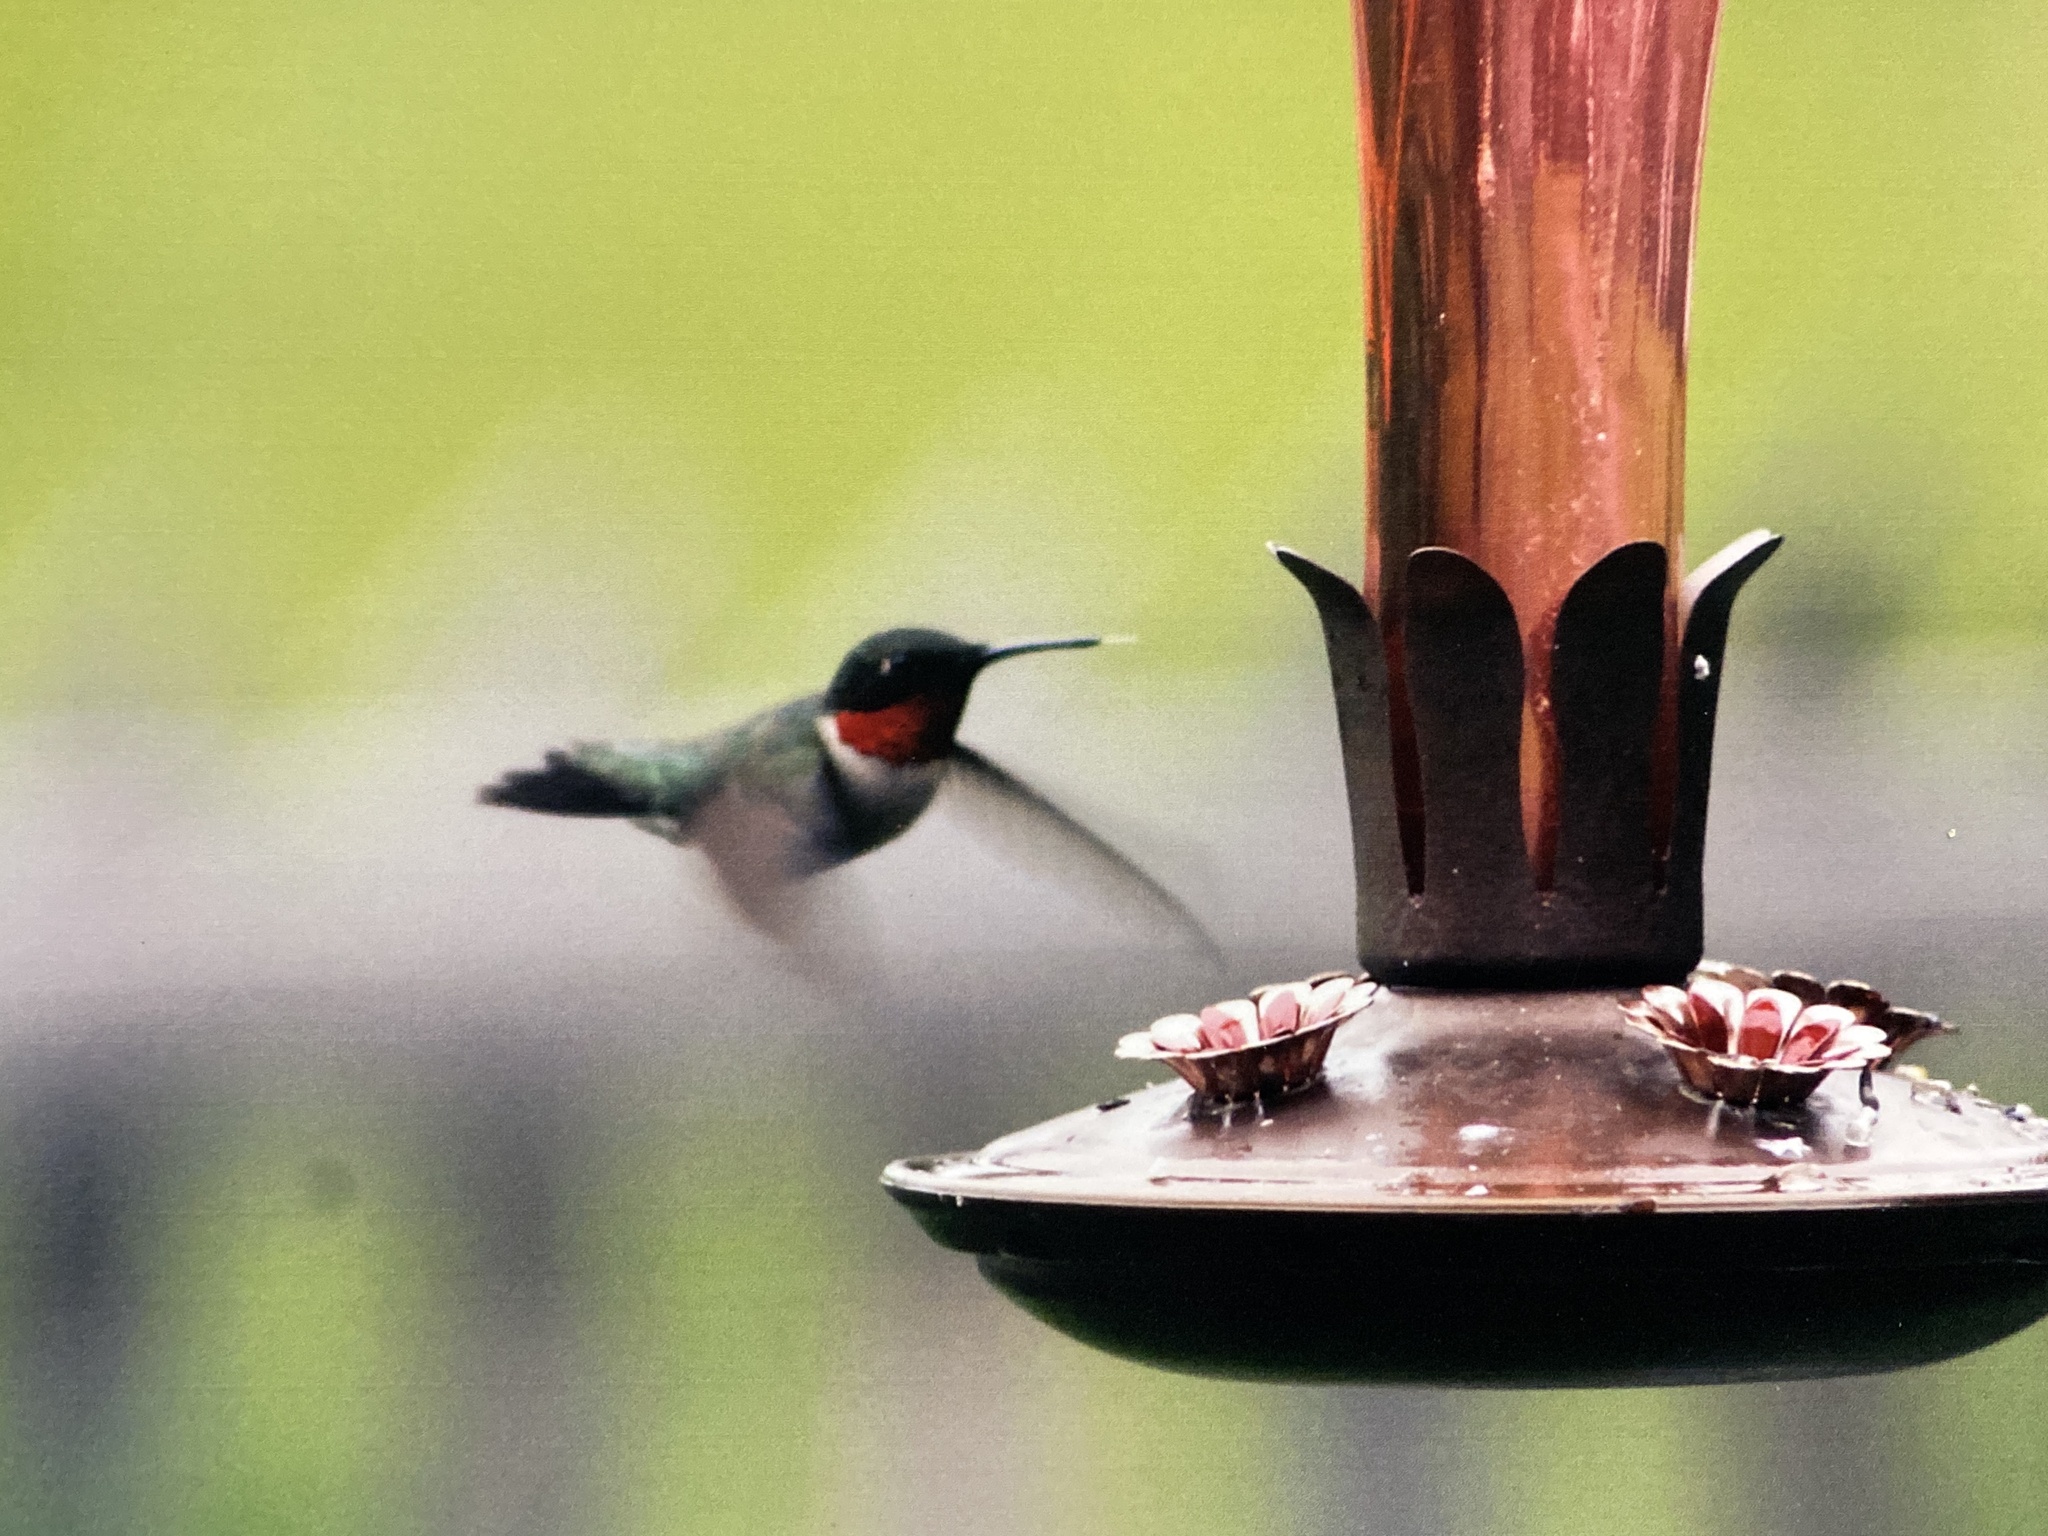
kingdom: Animalia
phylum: Chordata
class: Aves
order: Apodiformes
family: Trochilidae
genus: Archilochus
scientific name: Archilochus colubris
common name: Ruby-throated hummingbird
